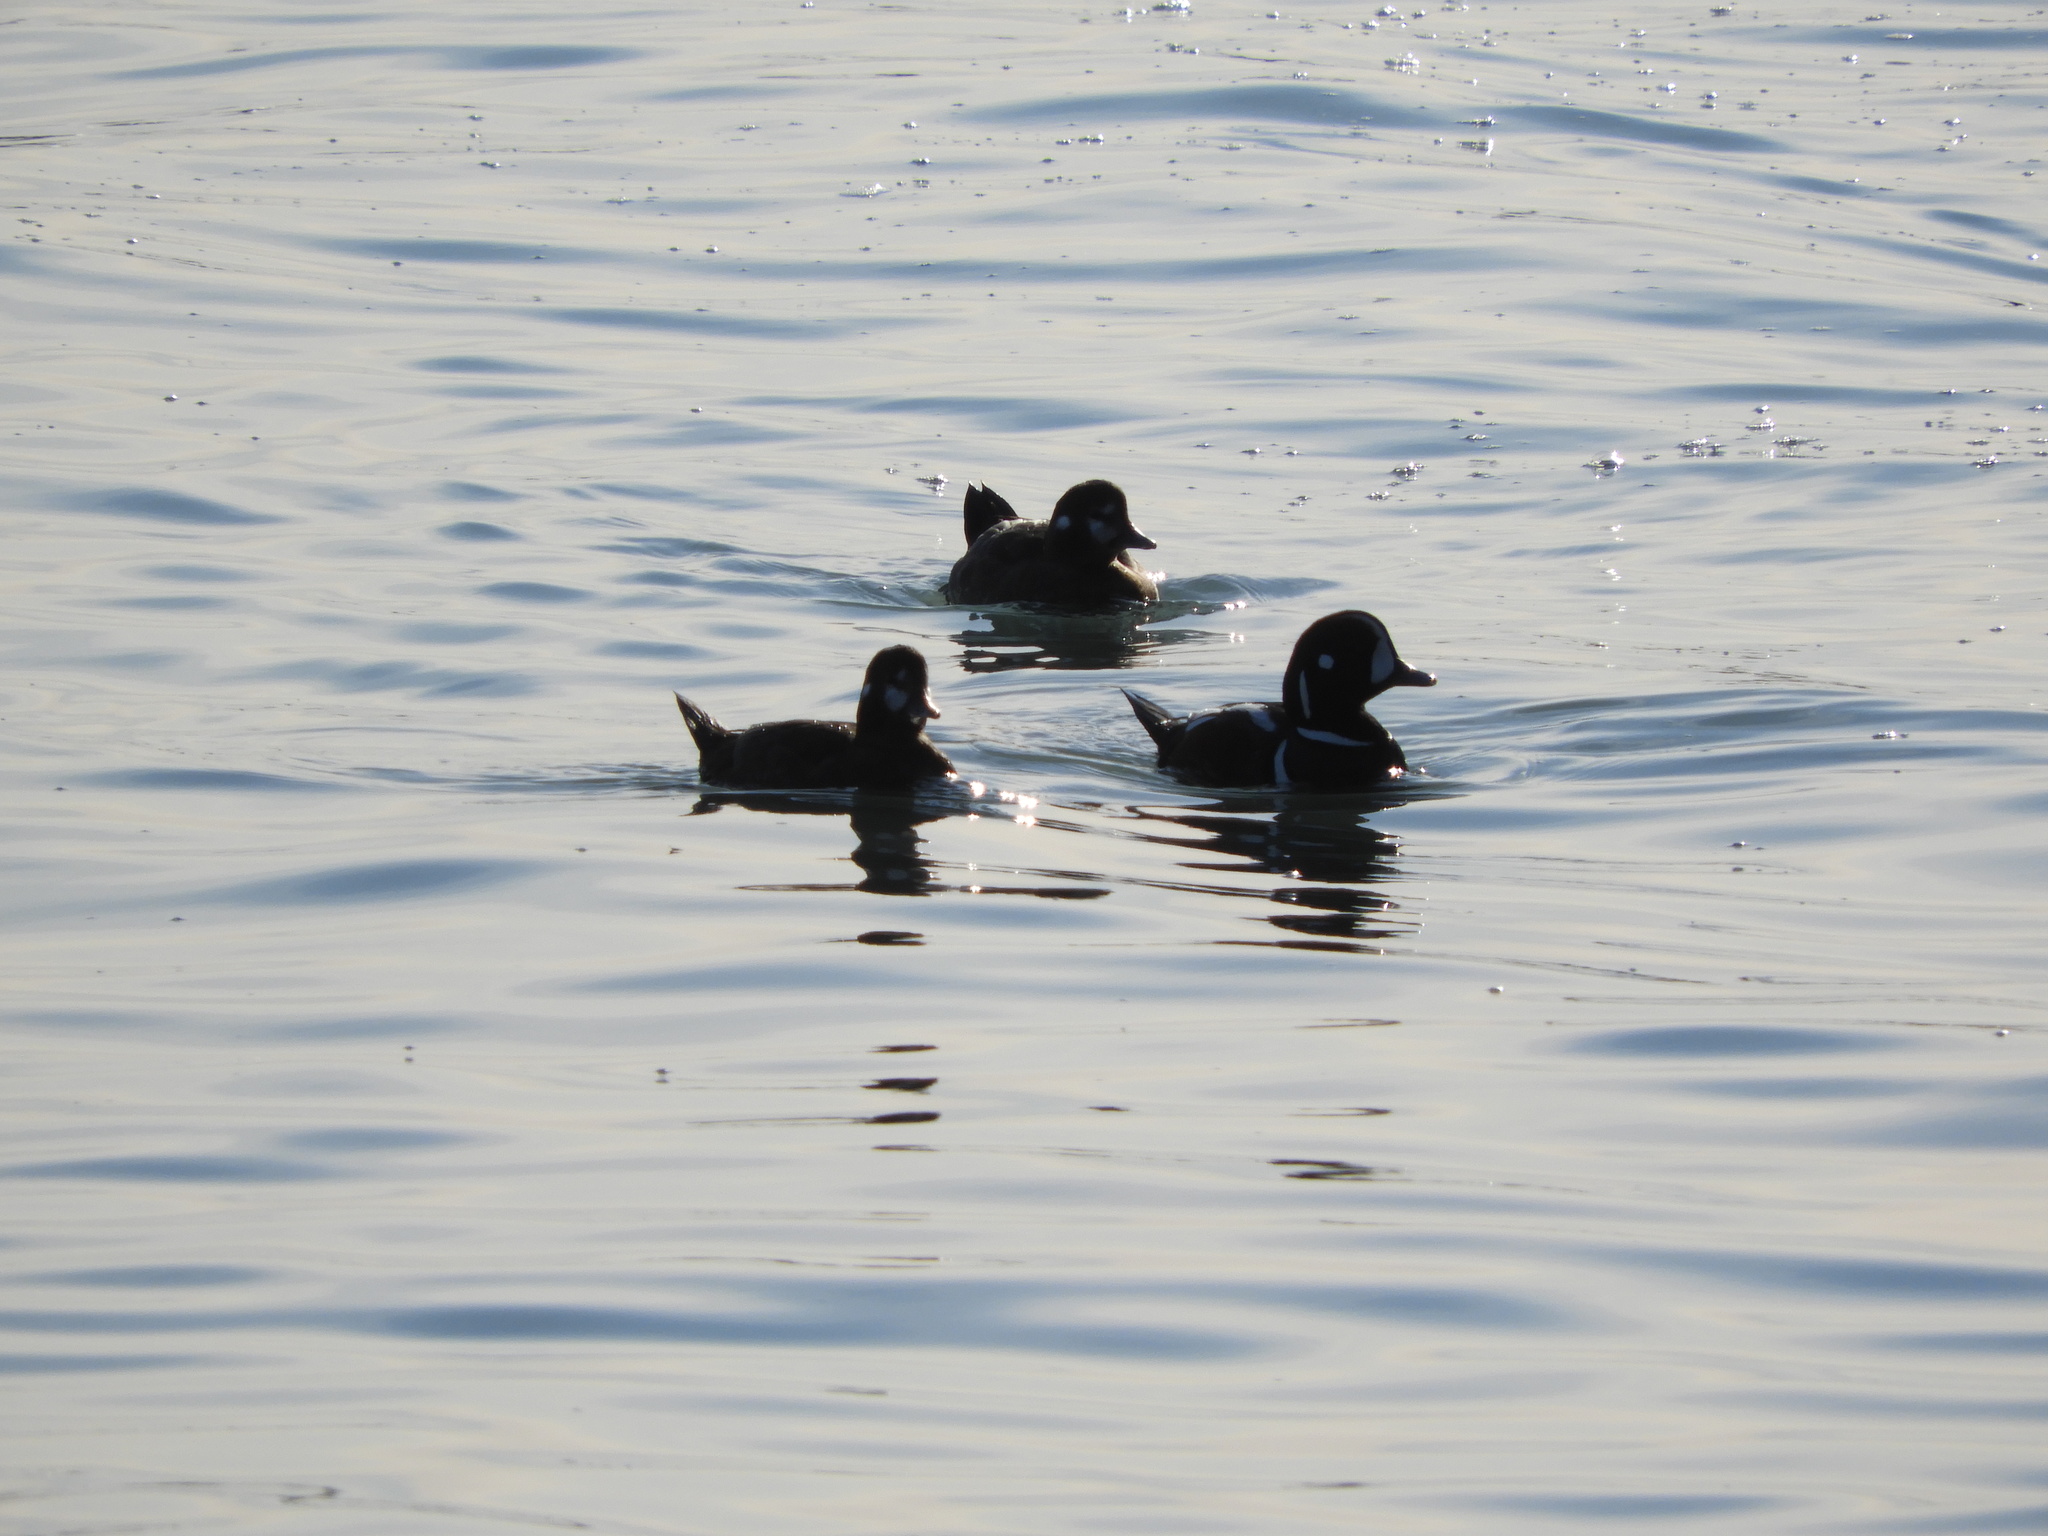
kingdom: Animalia
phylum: Chordata
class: Aves
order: Anseriformes
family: Anatidae
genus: Histrionicus
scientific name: Histrionicus histrionicus
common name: Harlequin duck
